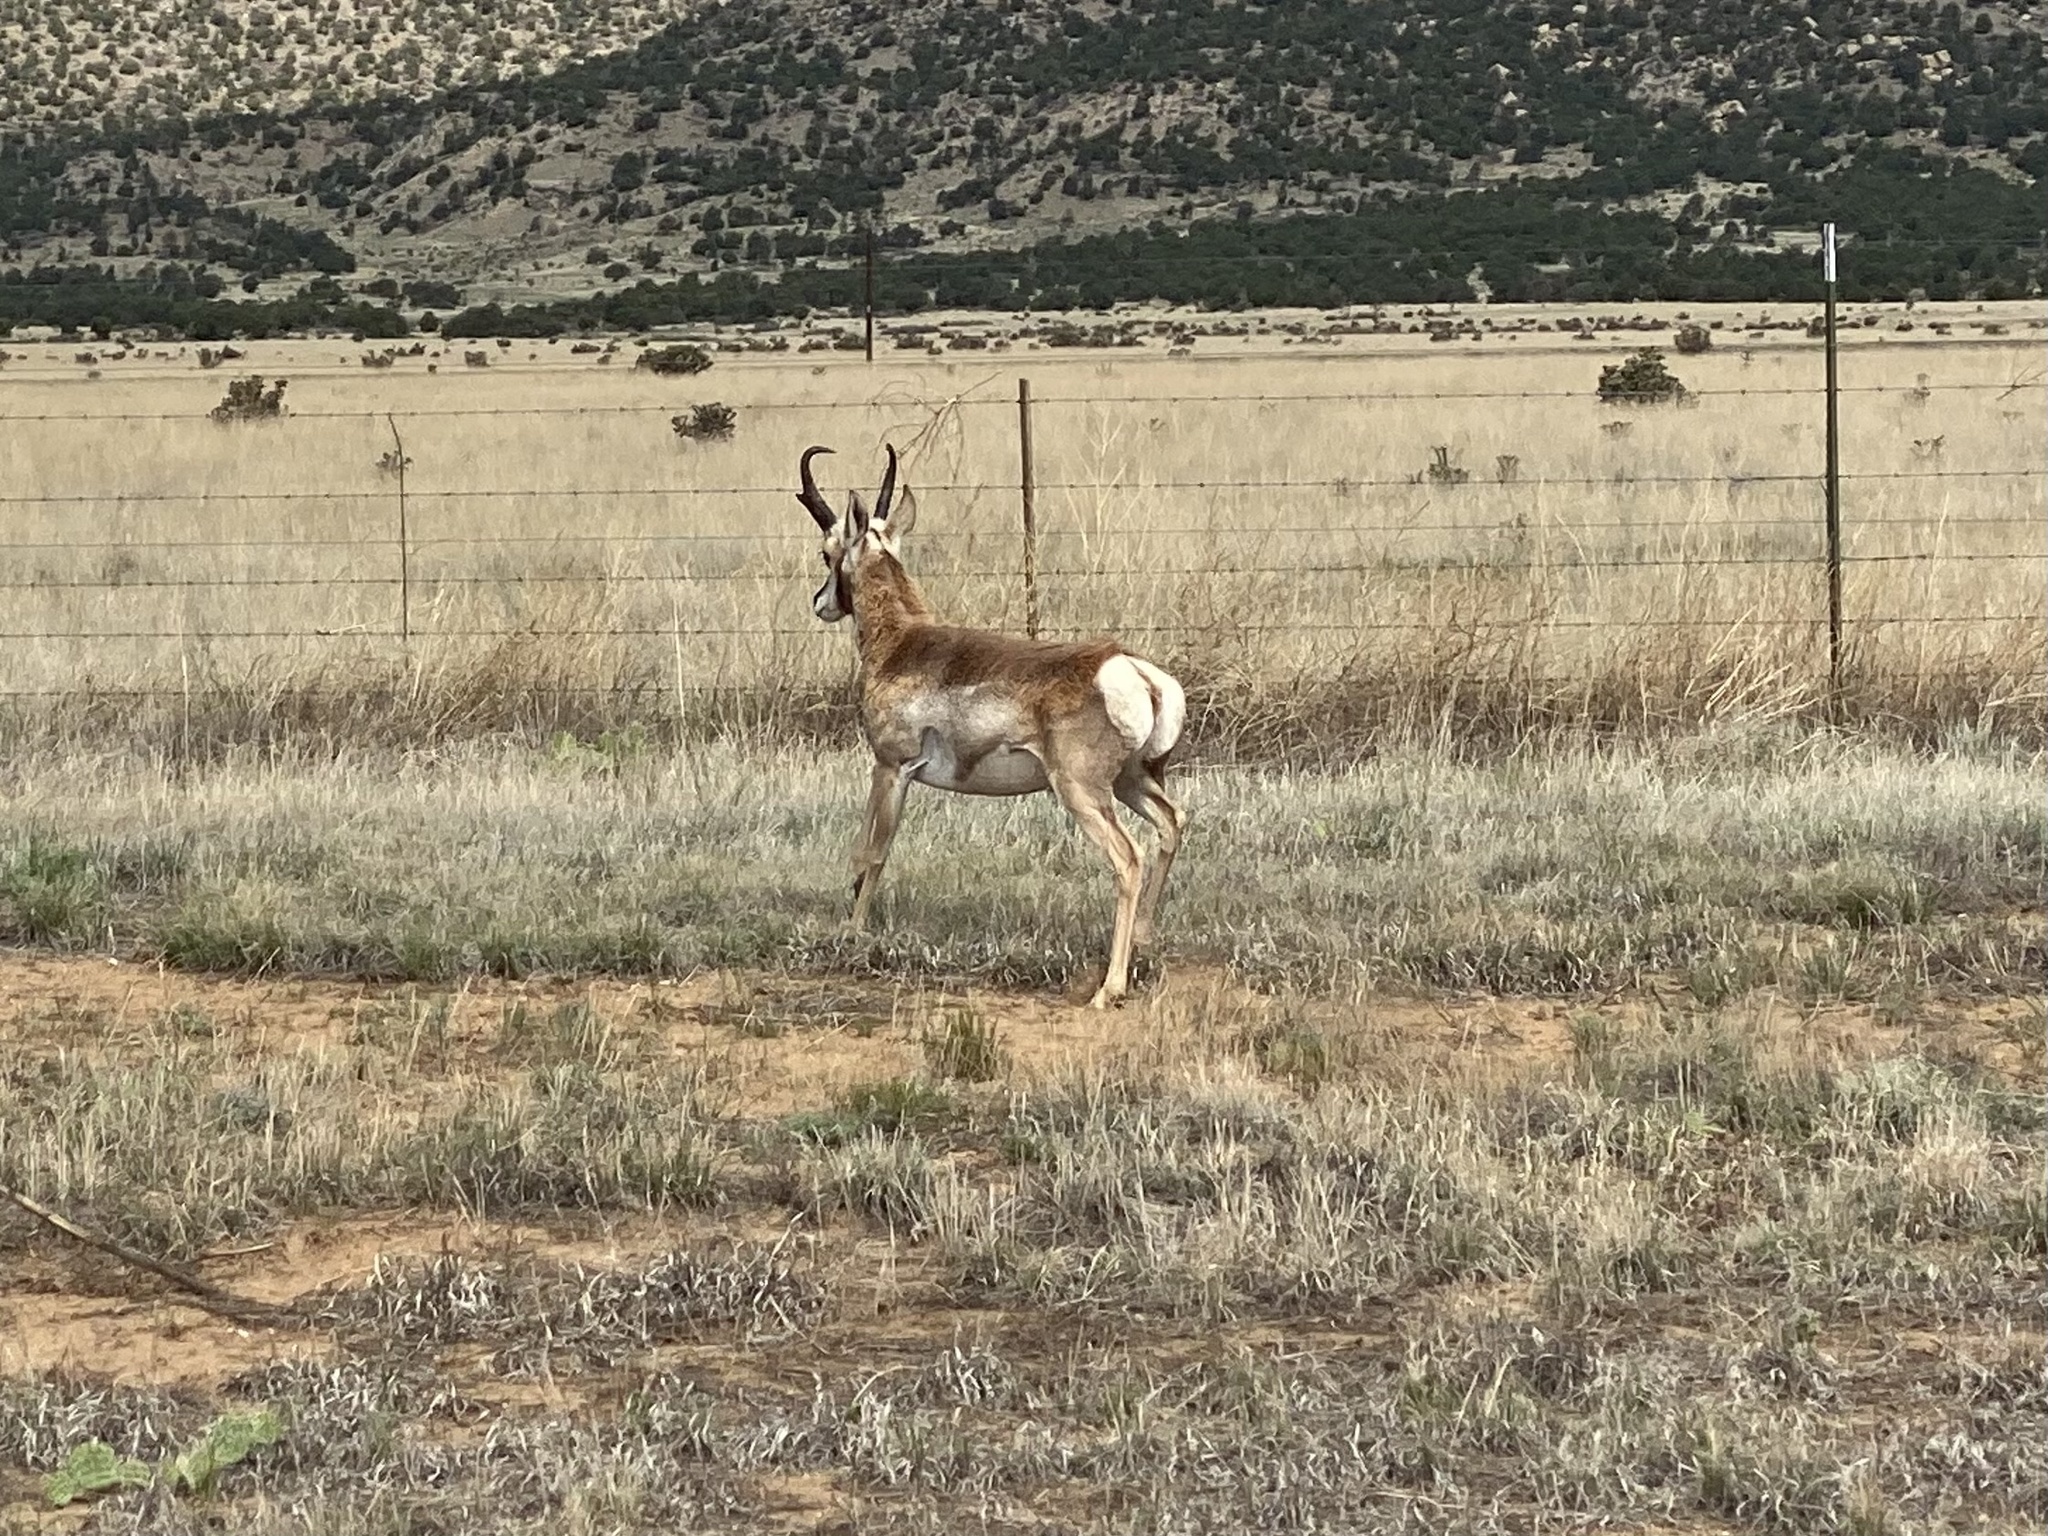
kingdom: Animalia
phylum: Chordata
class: Mammalia
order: Artiodactyla
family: Antilocapridae
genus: Antilocapra
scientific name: Antilocapra americana
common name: Pronghorn
